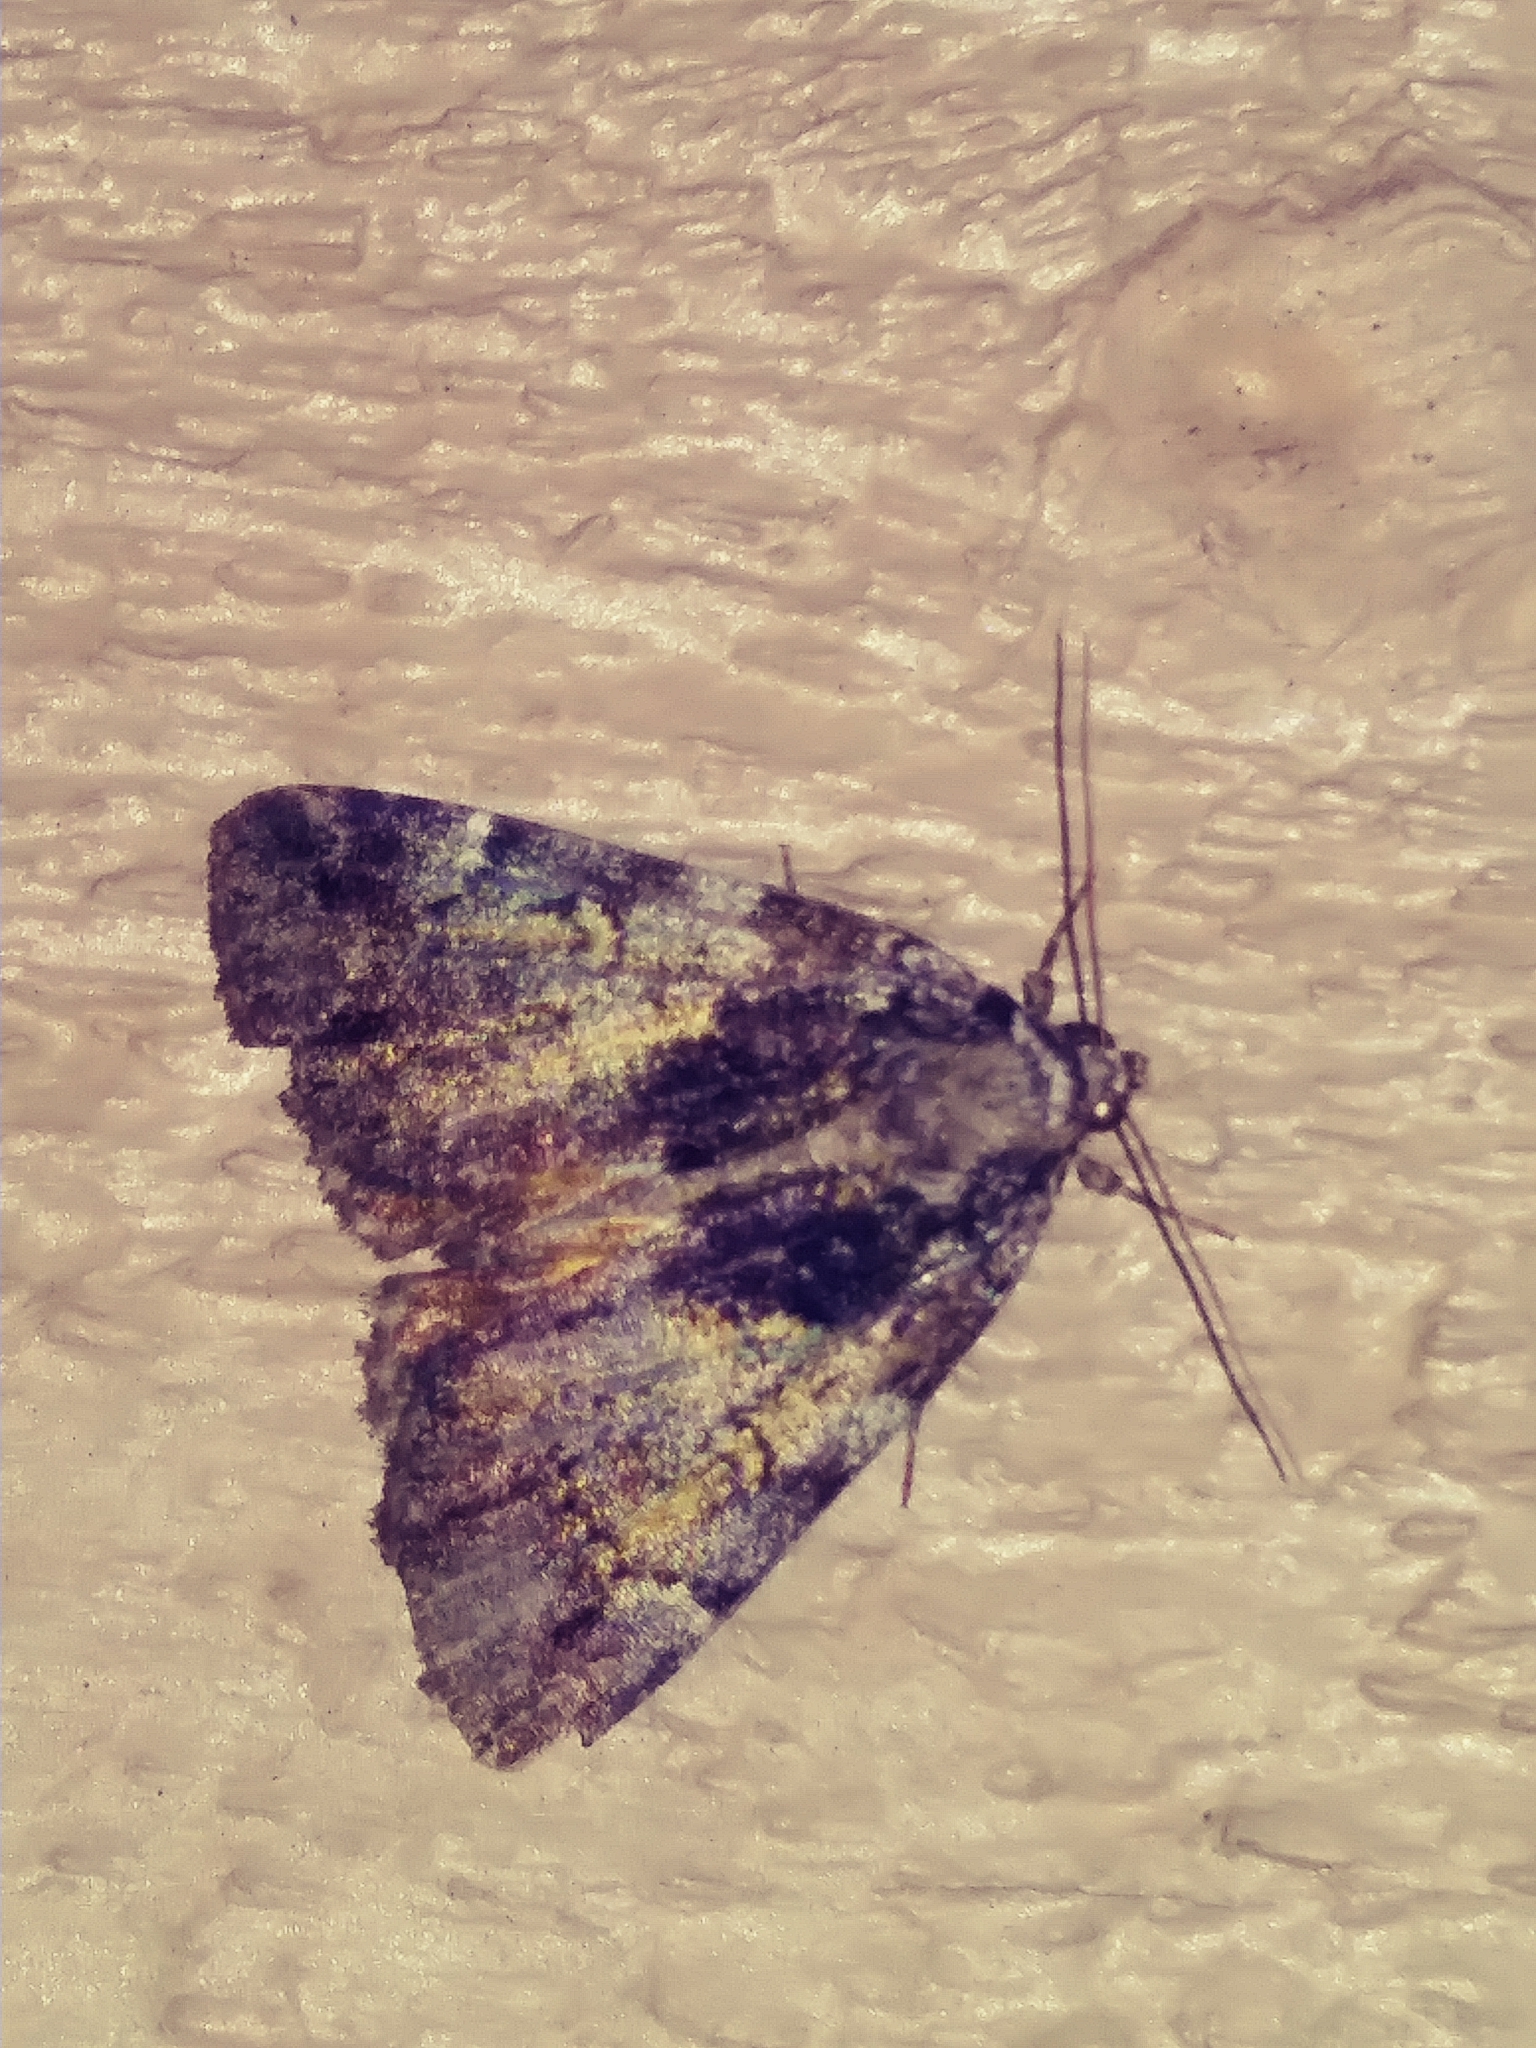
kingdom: Animalia
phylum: Arthropoda
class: Insecta
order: Lepidoptera
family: Erebidae
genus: Allotria
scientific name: Allotria elonympha
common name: False underwing
